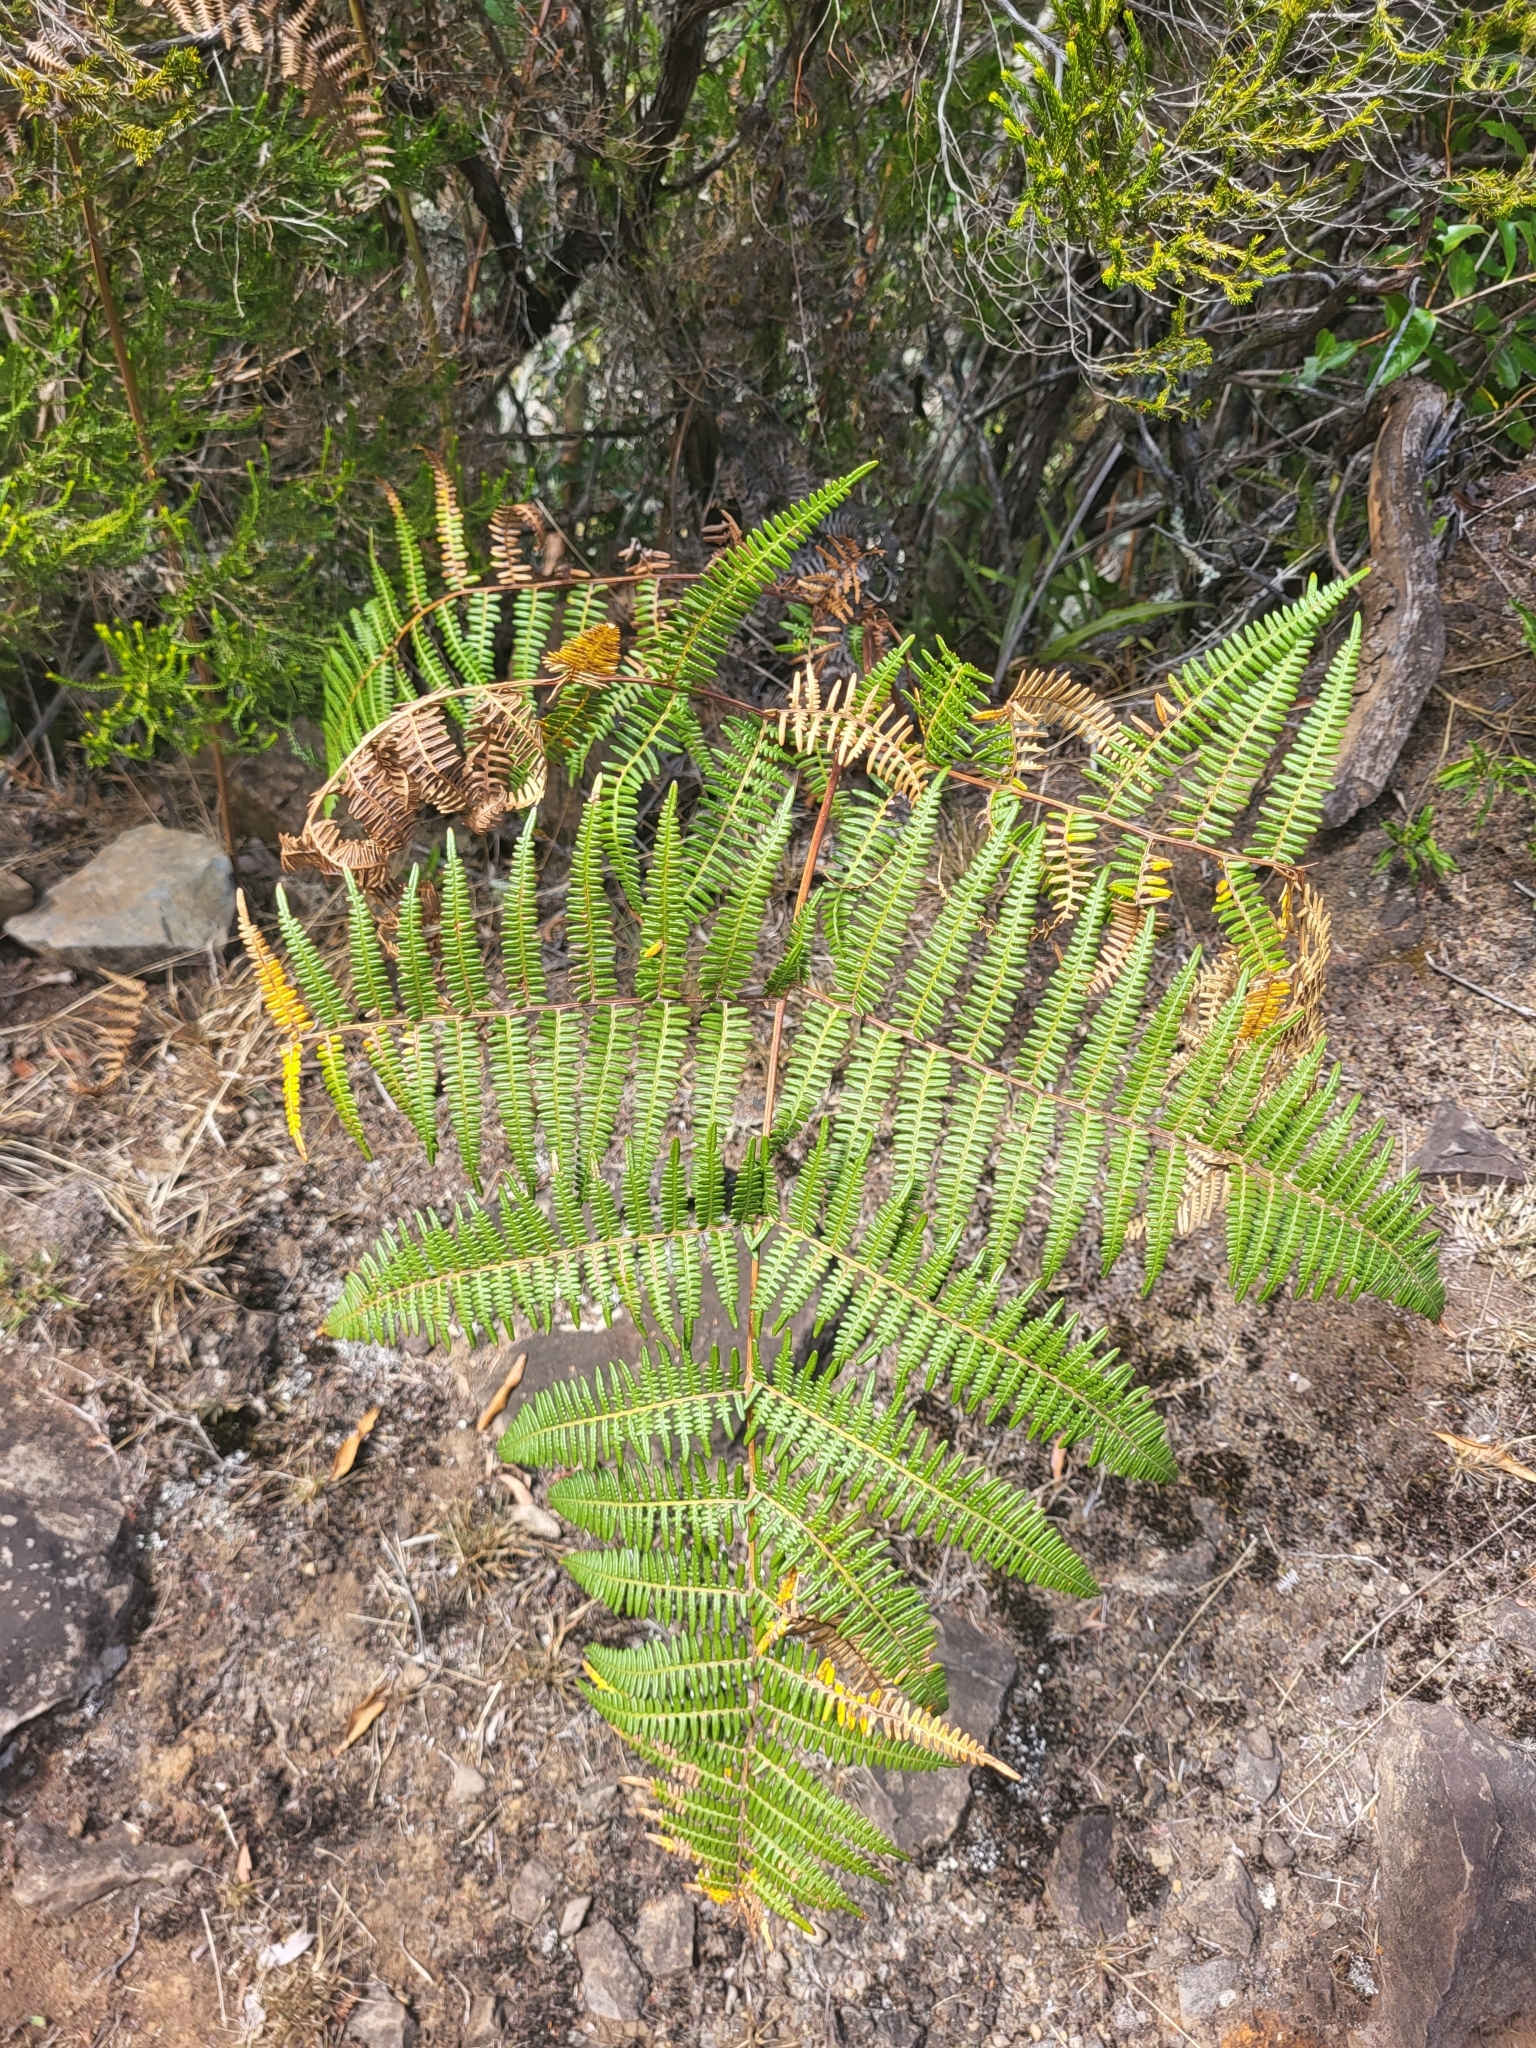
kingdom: Plantae
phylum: Tracheophyta
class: Polypodiopsida
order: Polypodiales
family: Dennstaedtiaceae
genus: Pteridium
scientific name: Pteridium aquilinum
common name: Bracken
